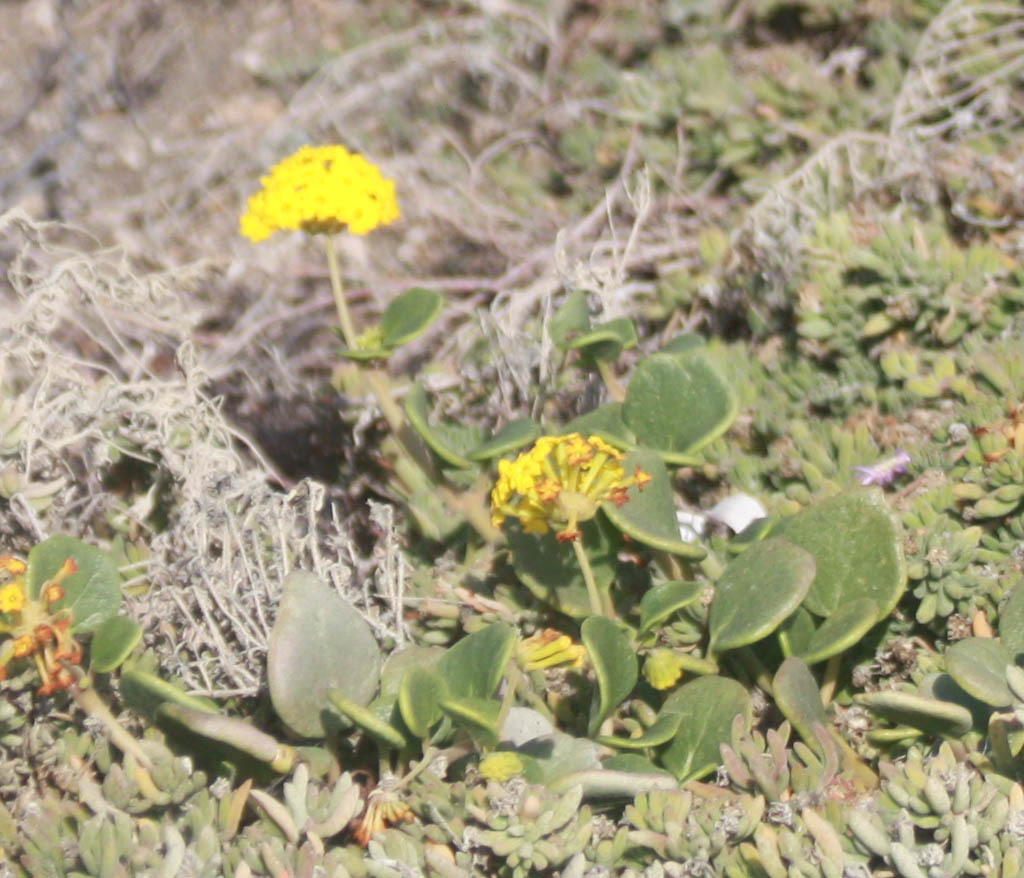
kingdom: Plantae
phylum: Tracheophyta
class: Magnoliopsida
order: Caryophyllales
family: Nyctaginaceae
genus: Abronia
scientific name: Abronia latifolia
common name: Yellow sand-verbena
